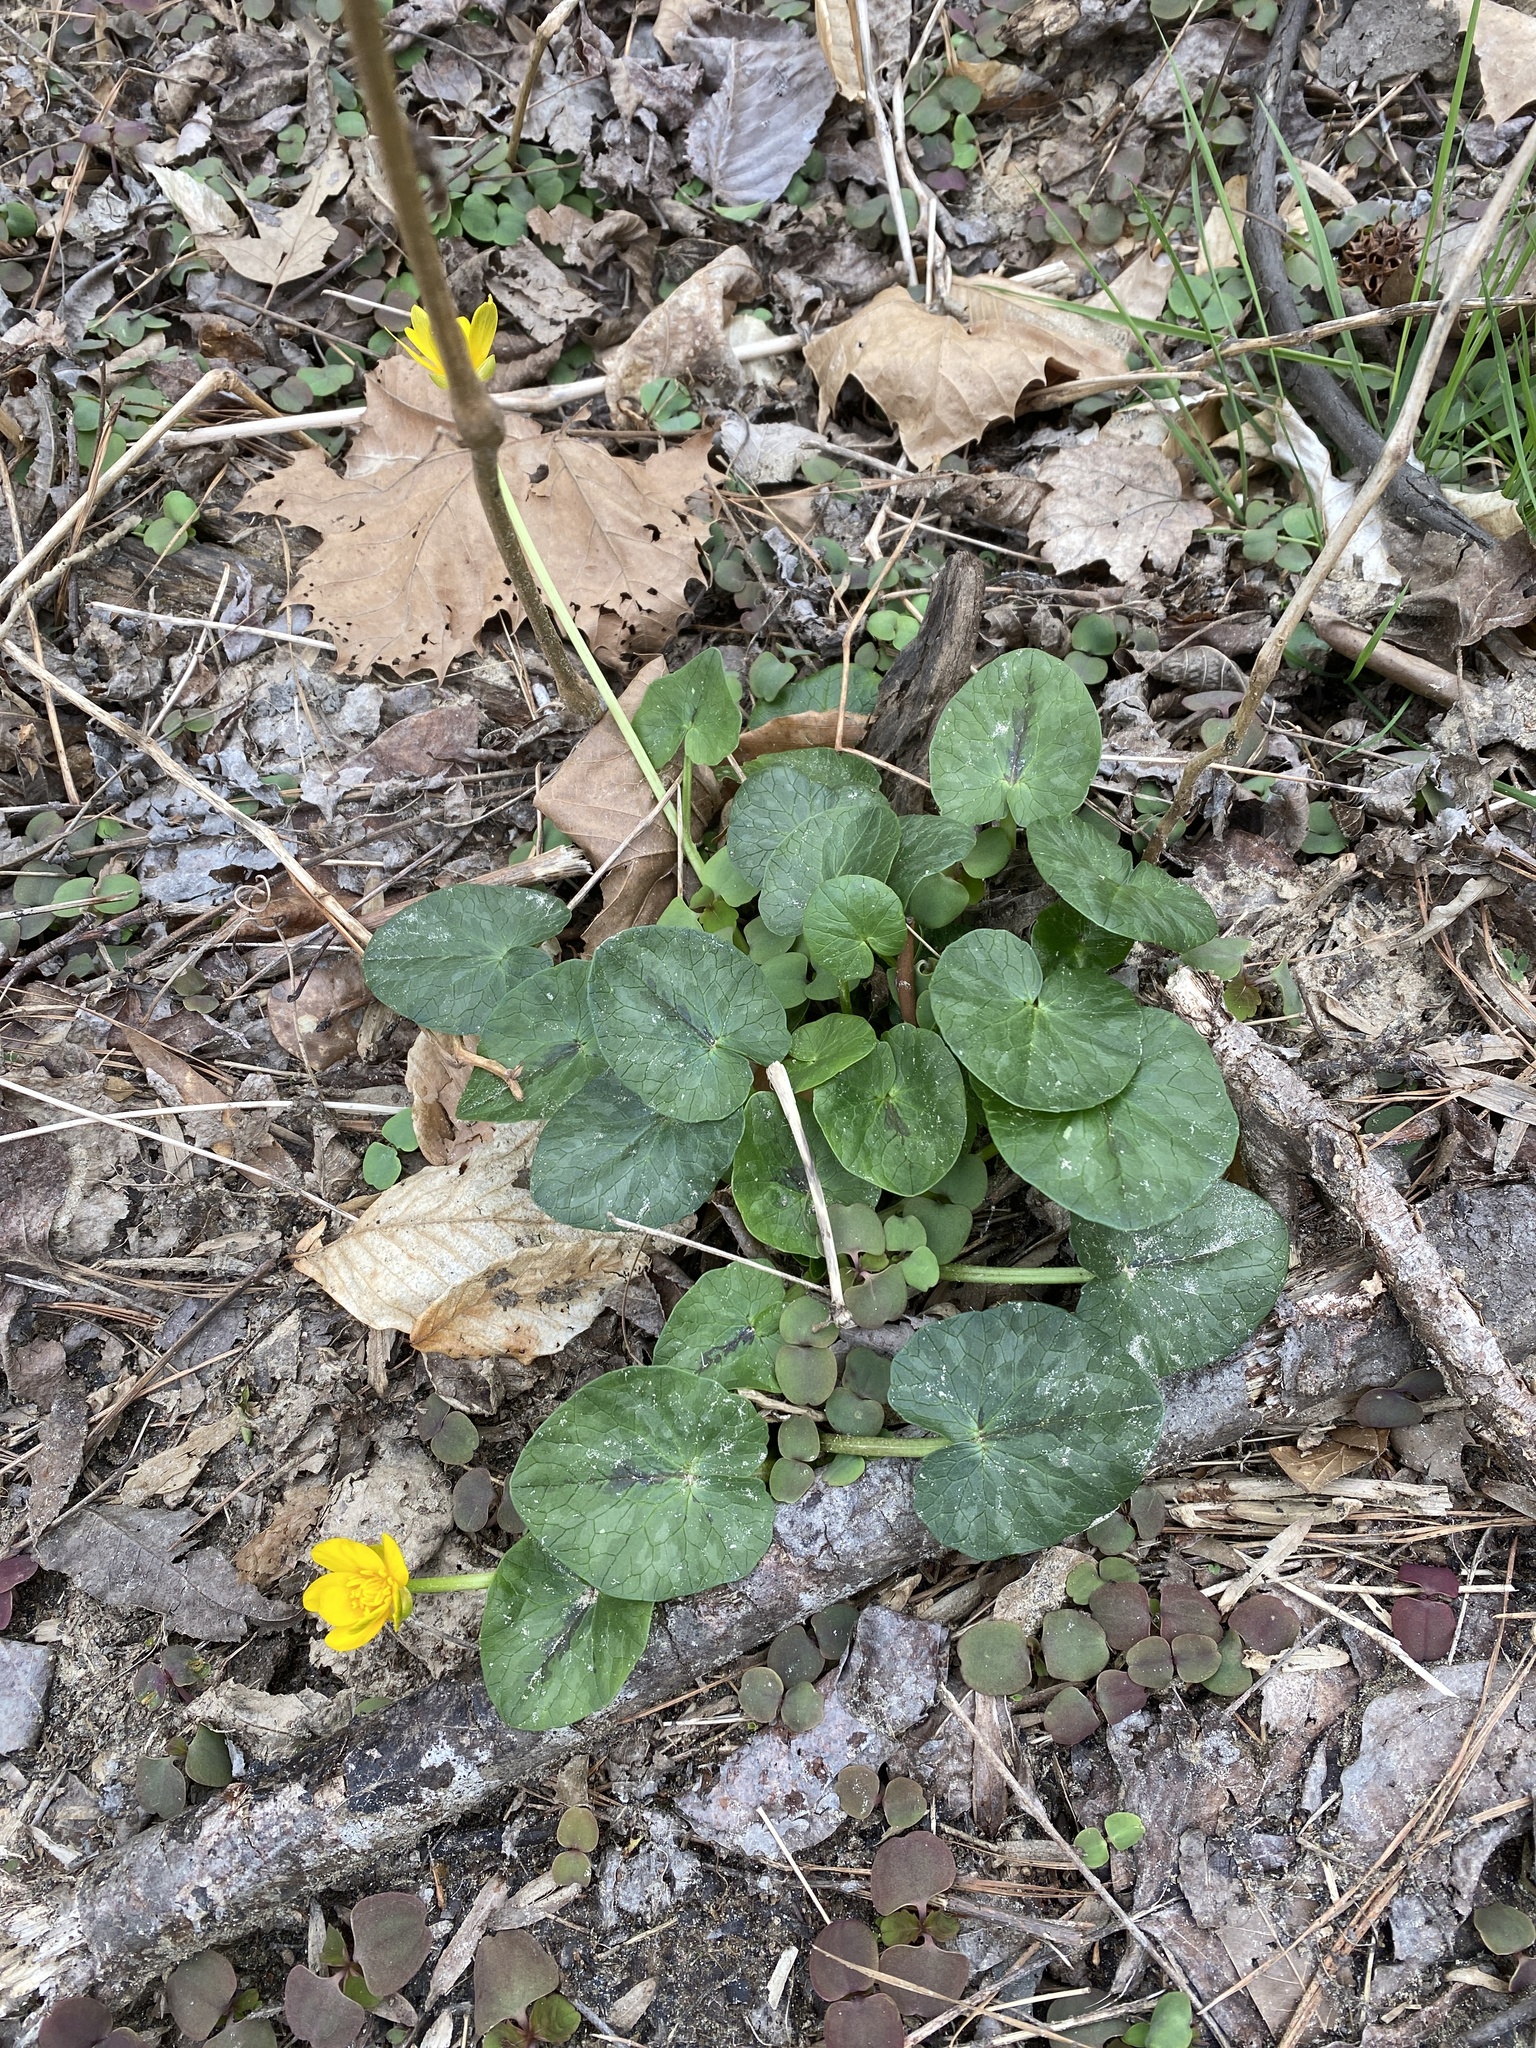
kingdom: Plantae
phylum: Tracheophyta
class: Magnoliopsida
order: Ranunculales
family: Ranunculaceae
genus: Ficaria
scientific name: Ficaria verna
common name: Lesser celandine
